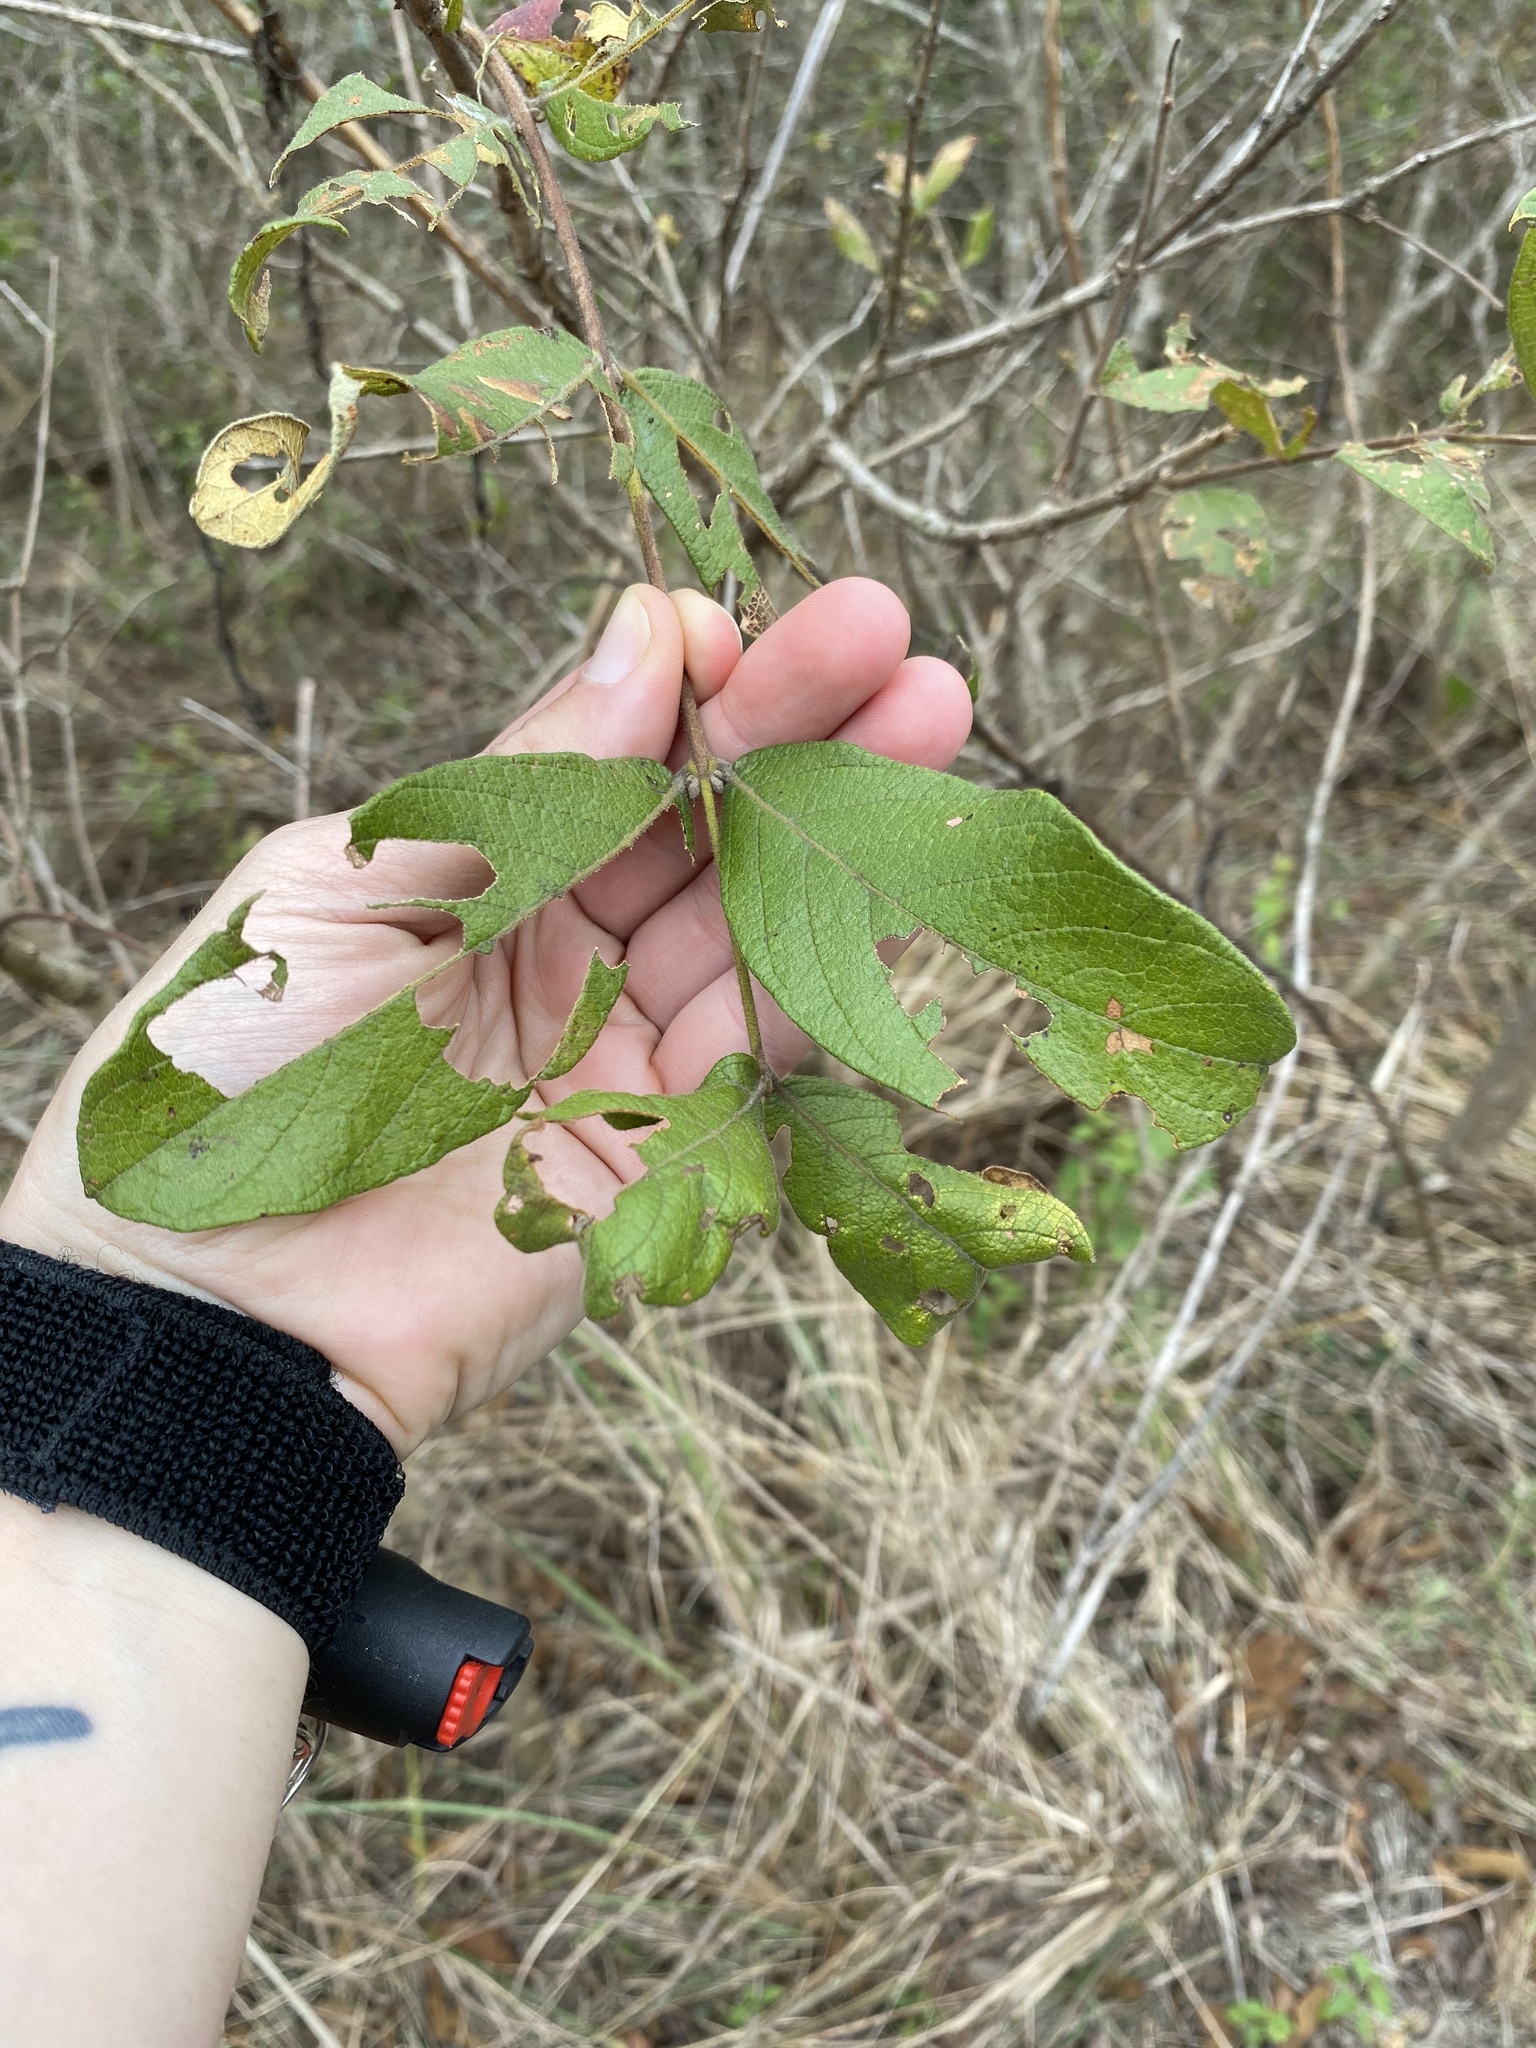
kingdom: Plantae
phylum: Tracheophyta
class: Magnoliopsida
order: Myrtales
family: Combretaceae
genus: Combretum
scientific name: Combretum molle
